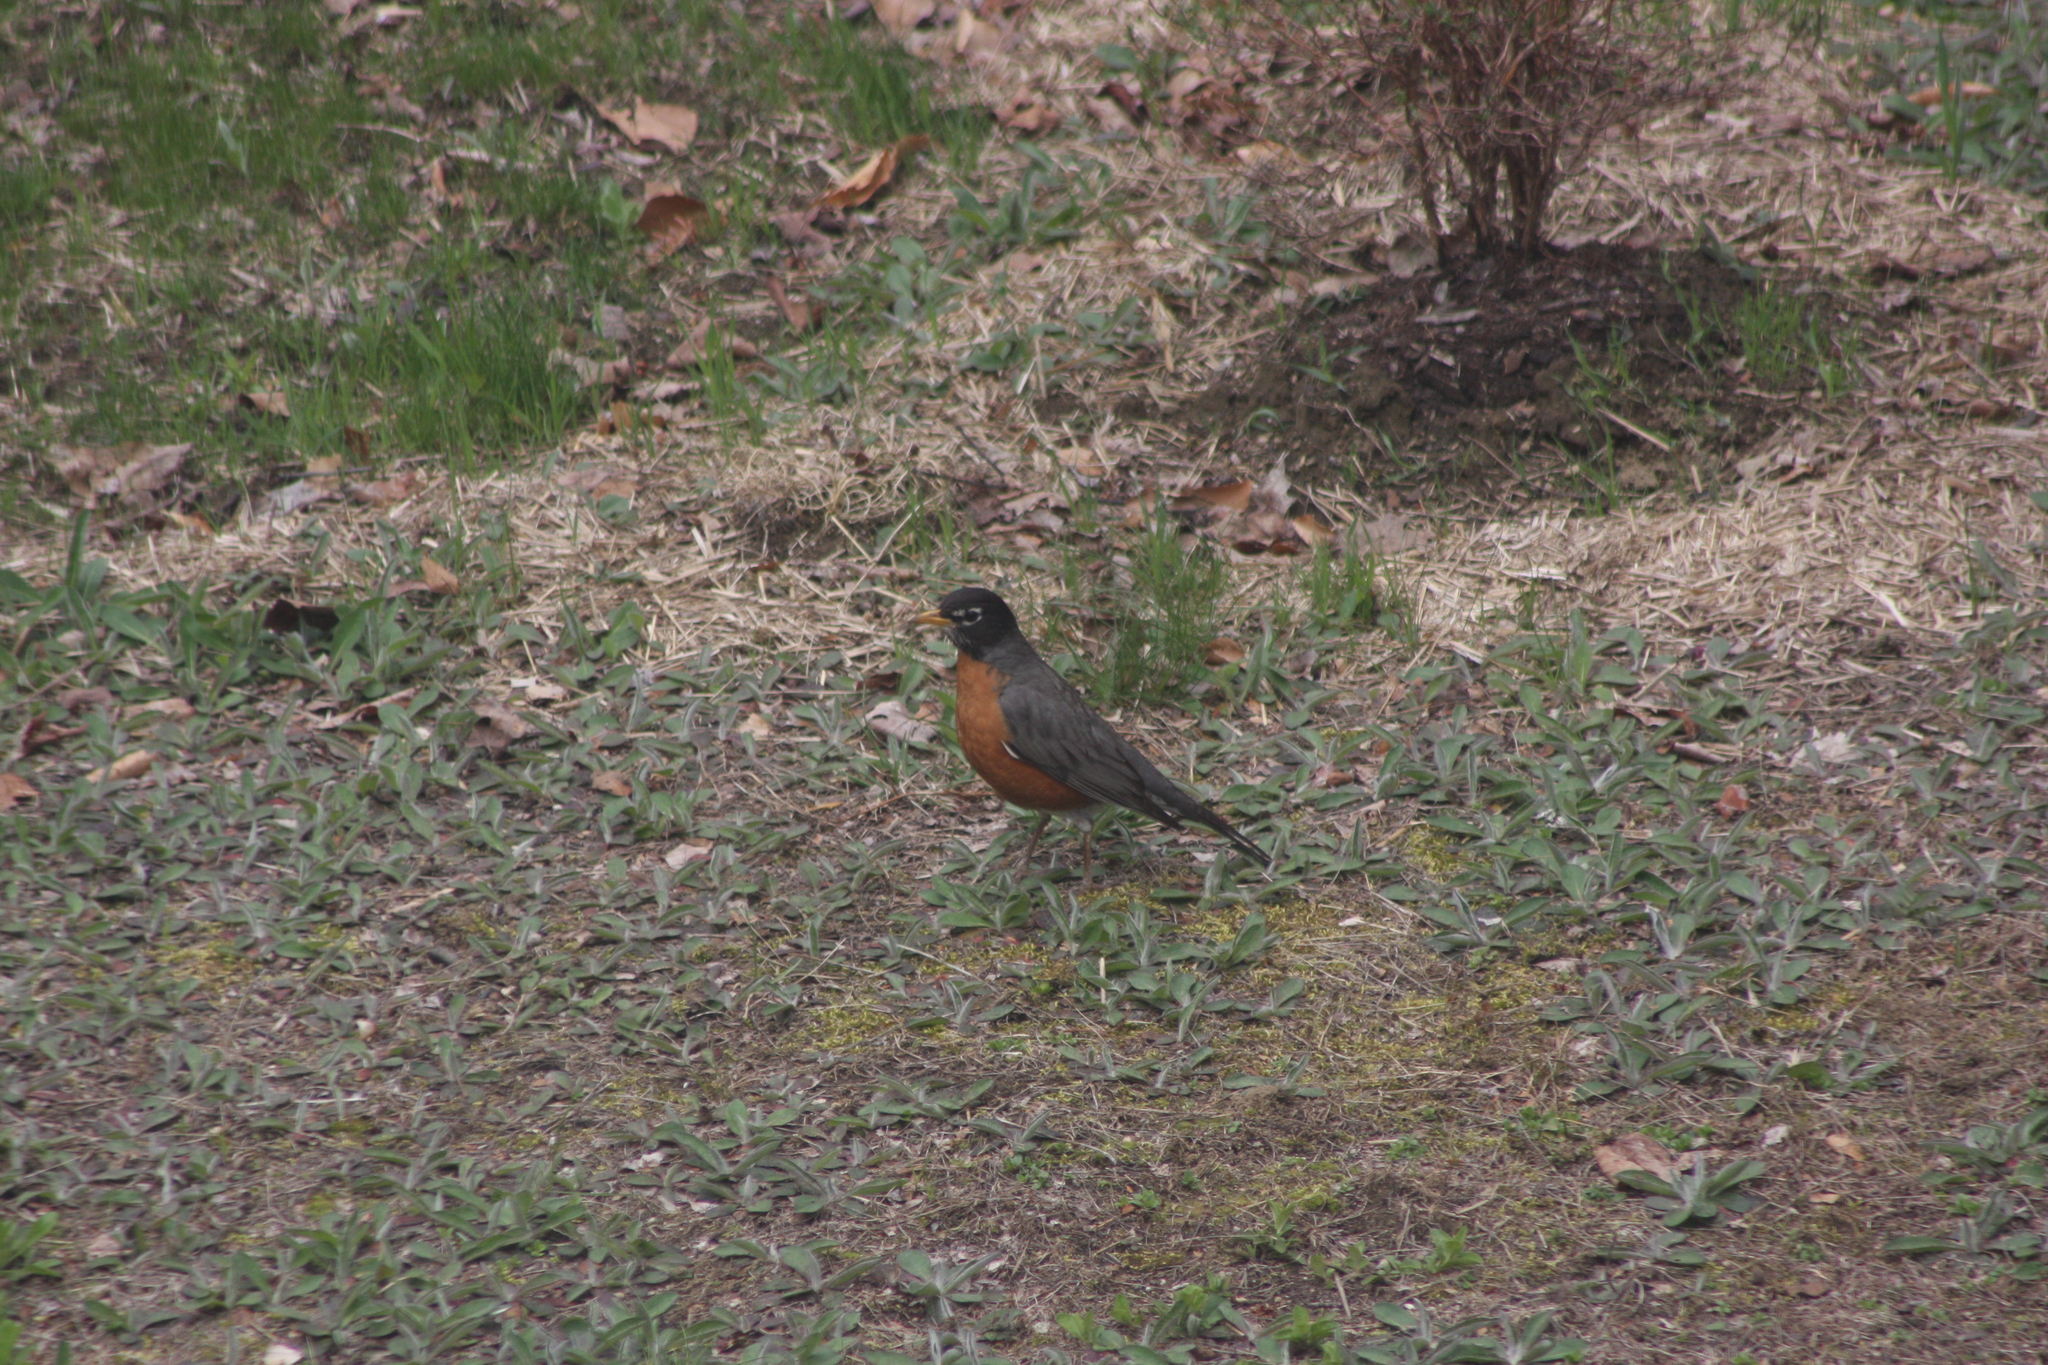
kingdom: Animalia
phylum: Chordata
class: Aves
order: Passeriformes
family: Turdidae
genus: Turdus
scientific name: Turdus migratorius
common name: American robin
